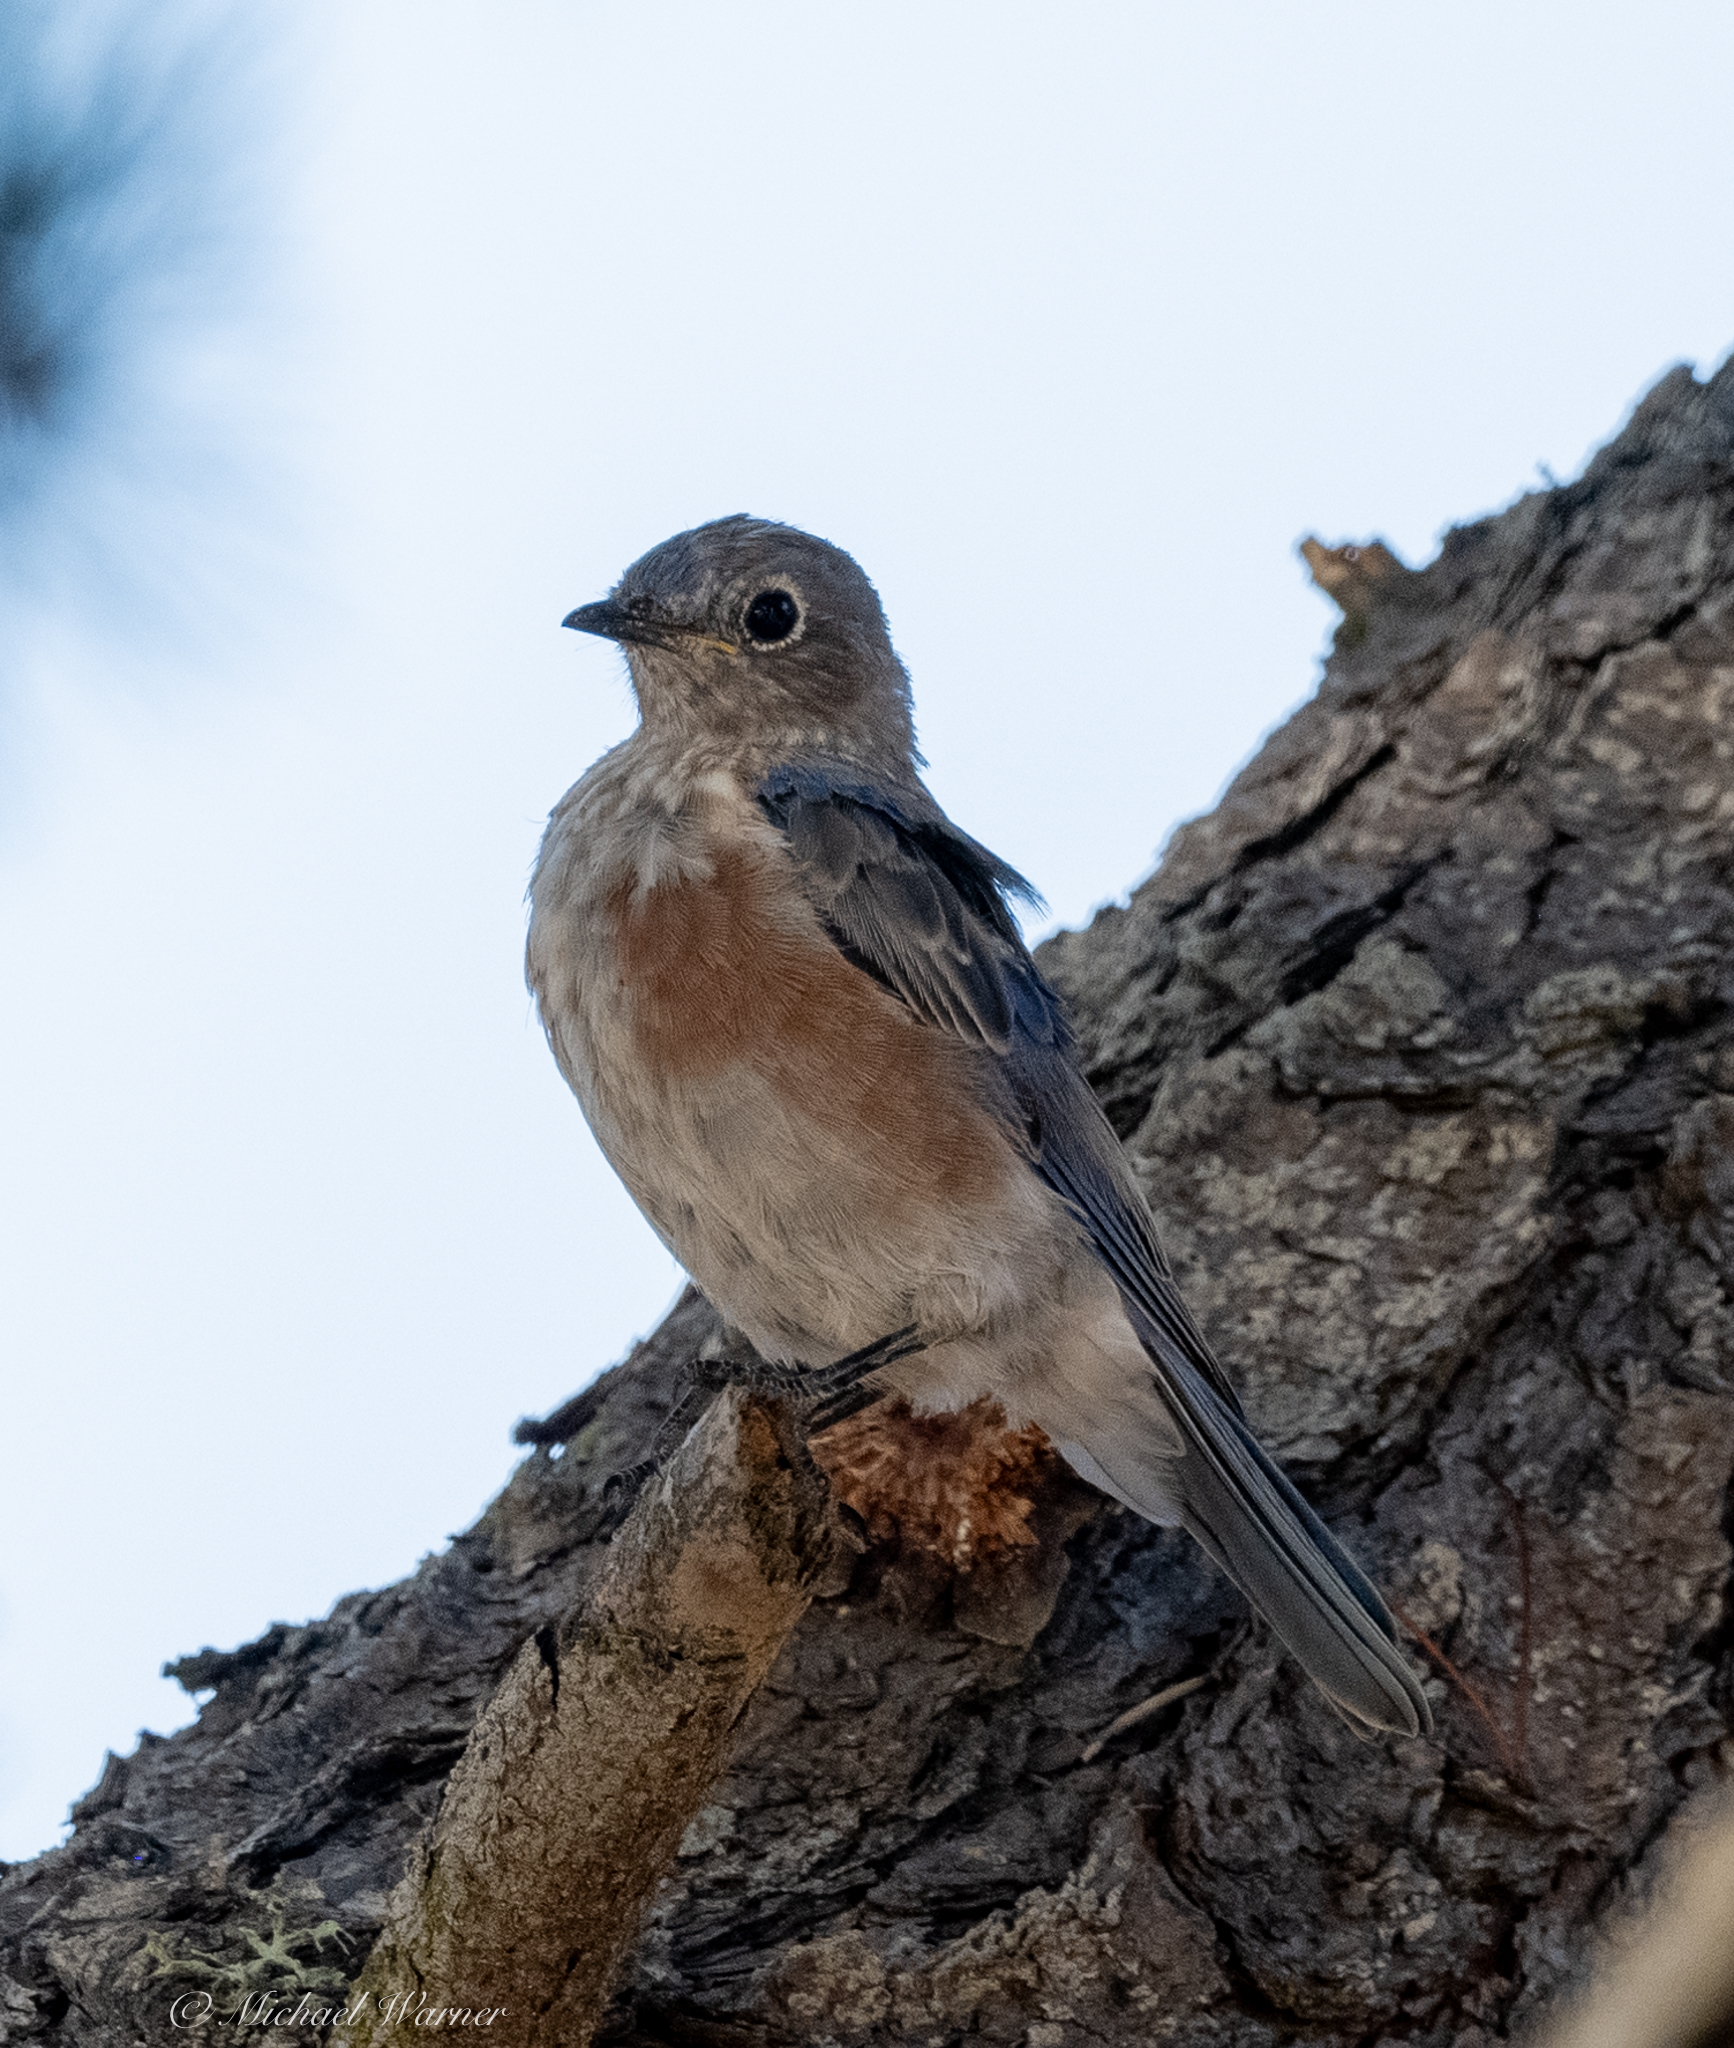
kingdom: Animalia
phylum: Chordata
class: Aves
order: Passeriformes
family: Turdidae
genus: Sialia
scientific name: Sialia mexicana
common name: Western bluebird
